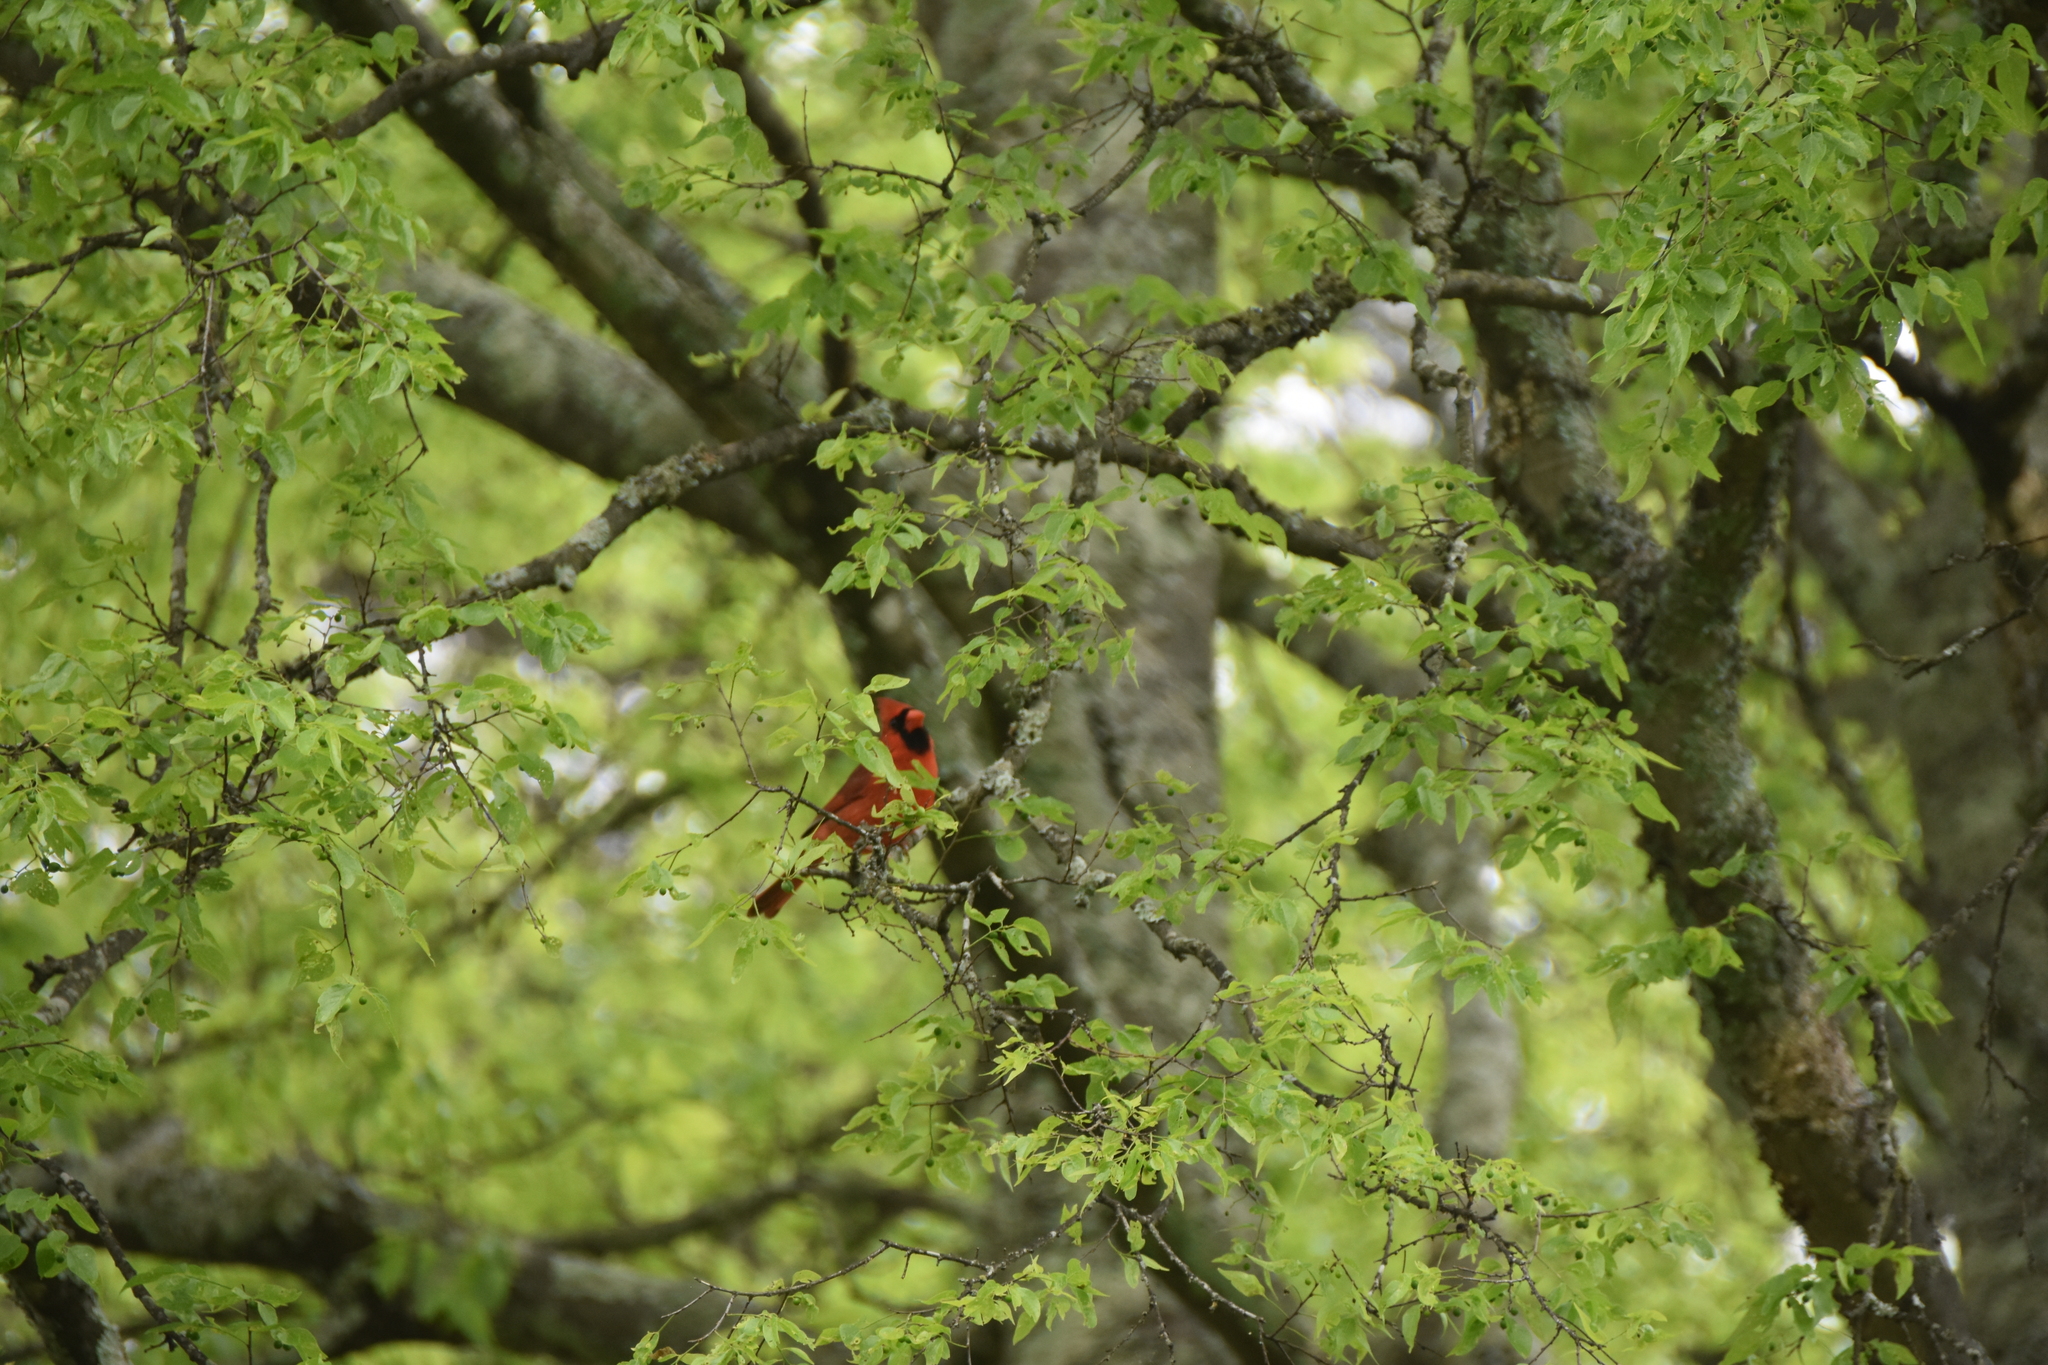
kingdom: Animalia
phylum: Chordata
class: Aves
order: Passeriformes
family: Cardinalidae
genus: Cardinalis
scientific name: Cardinalis cardinalis
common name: Northern cardinal
